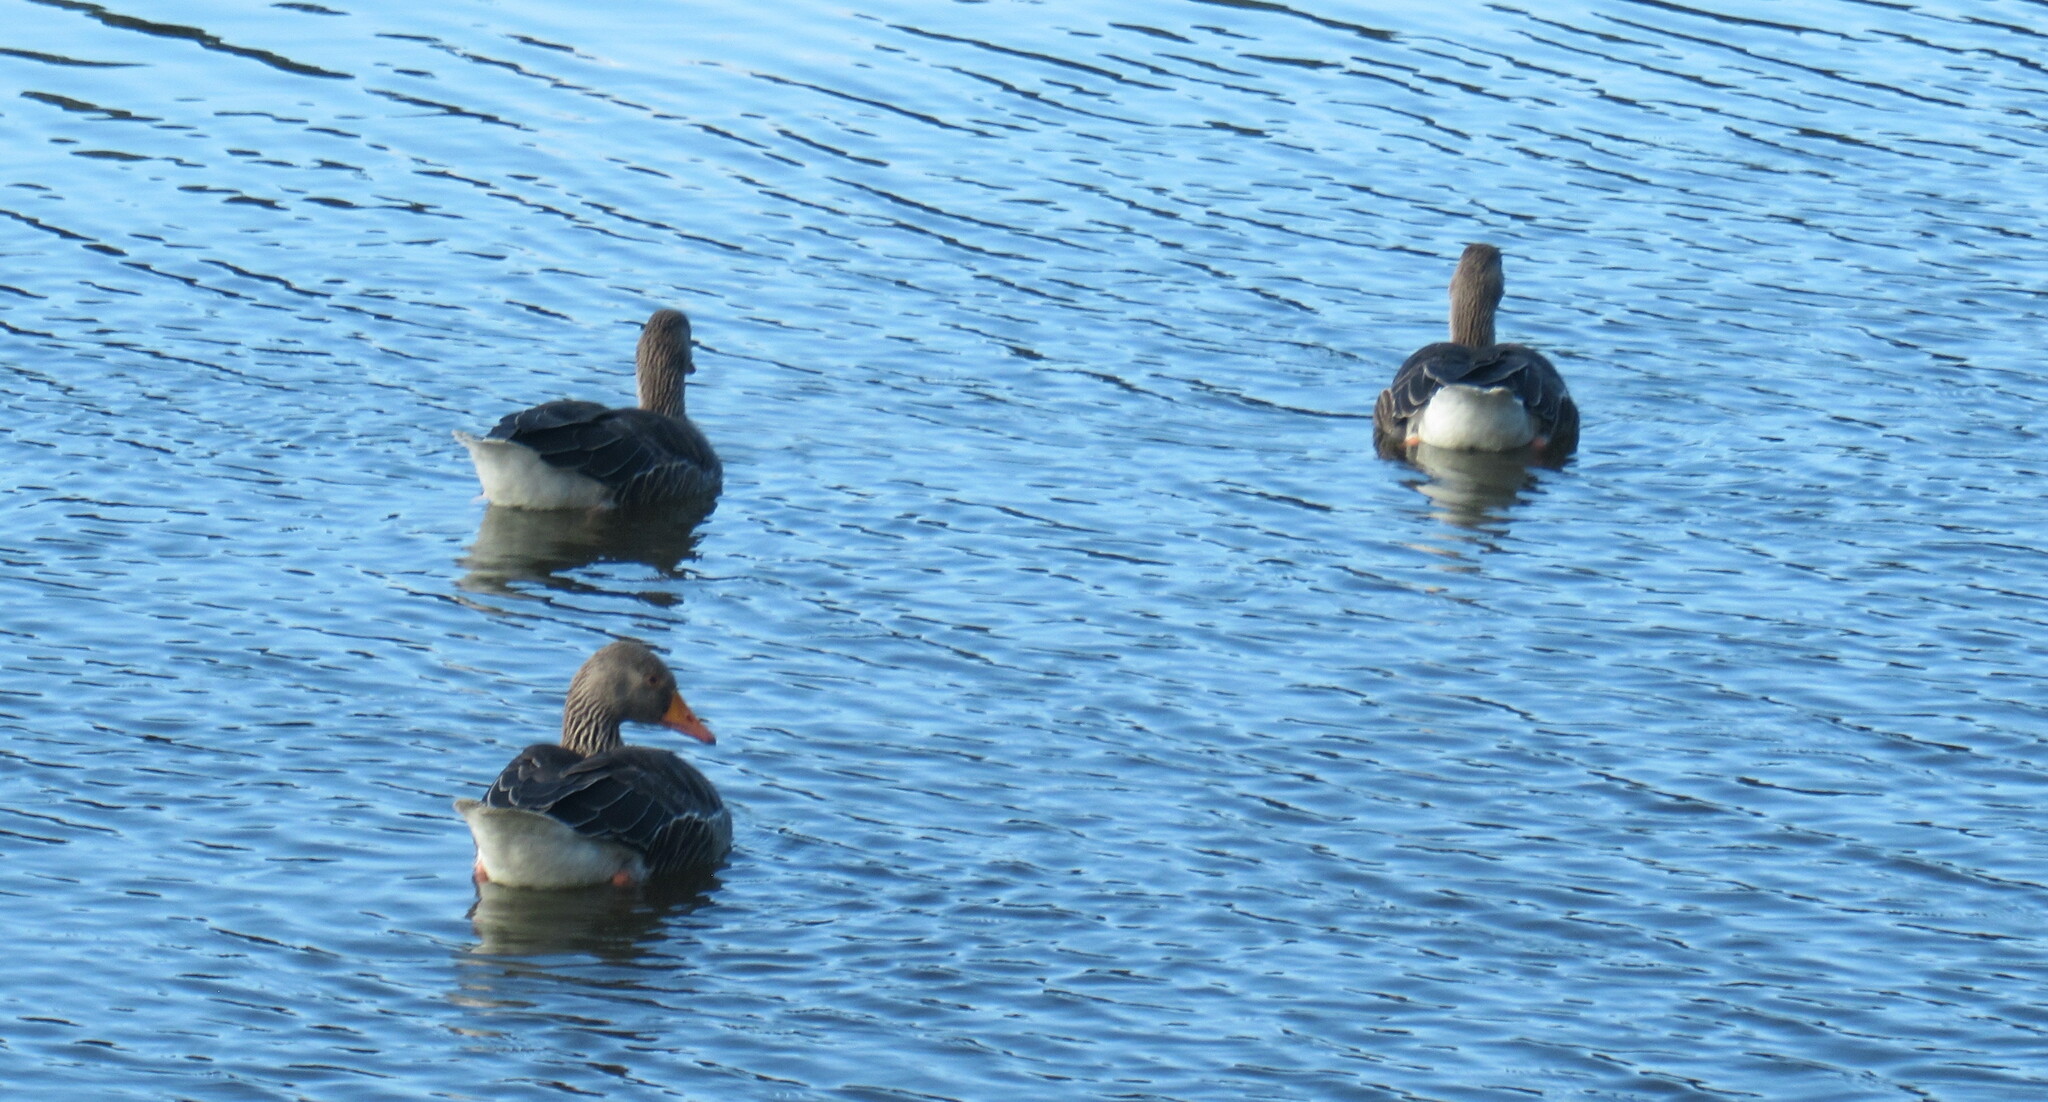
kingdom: Animalia
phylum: Chordata
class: Aves
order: Anseriformes
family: Anatidae
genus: Anser
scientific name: Anser anser
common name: Greylag goose
